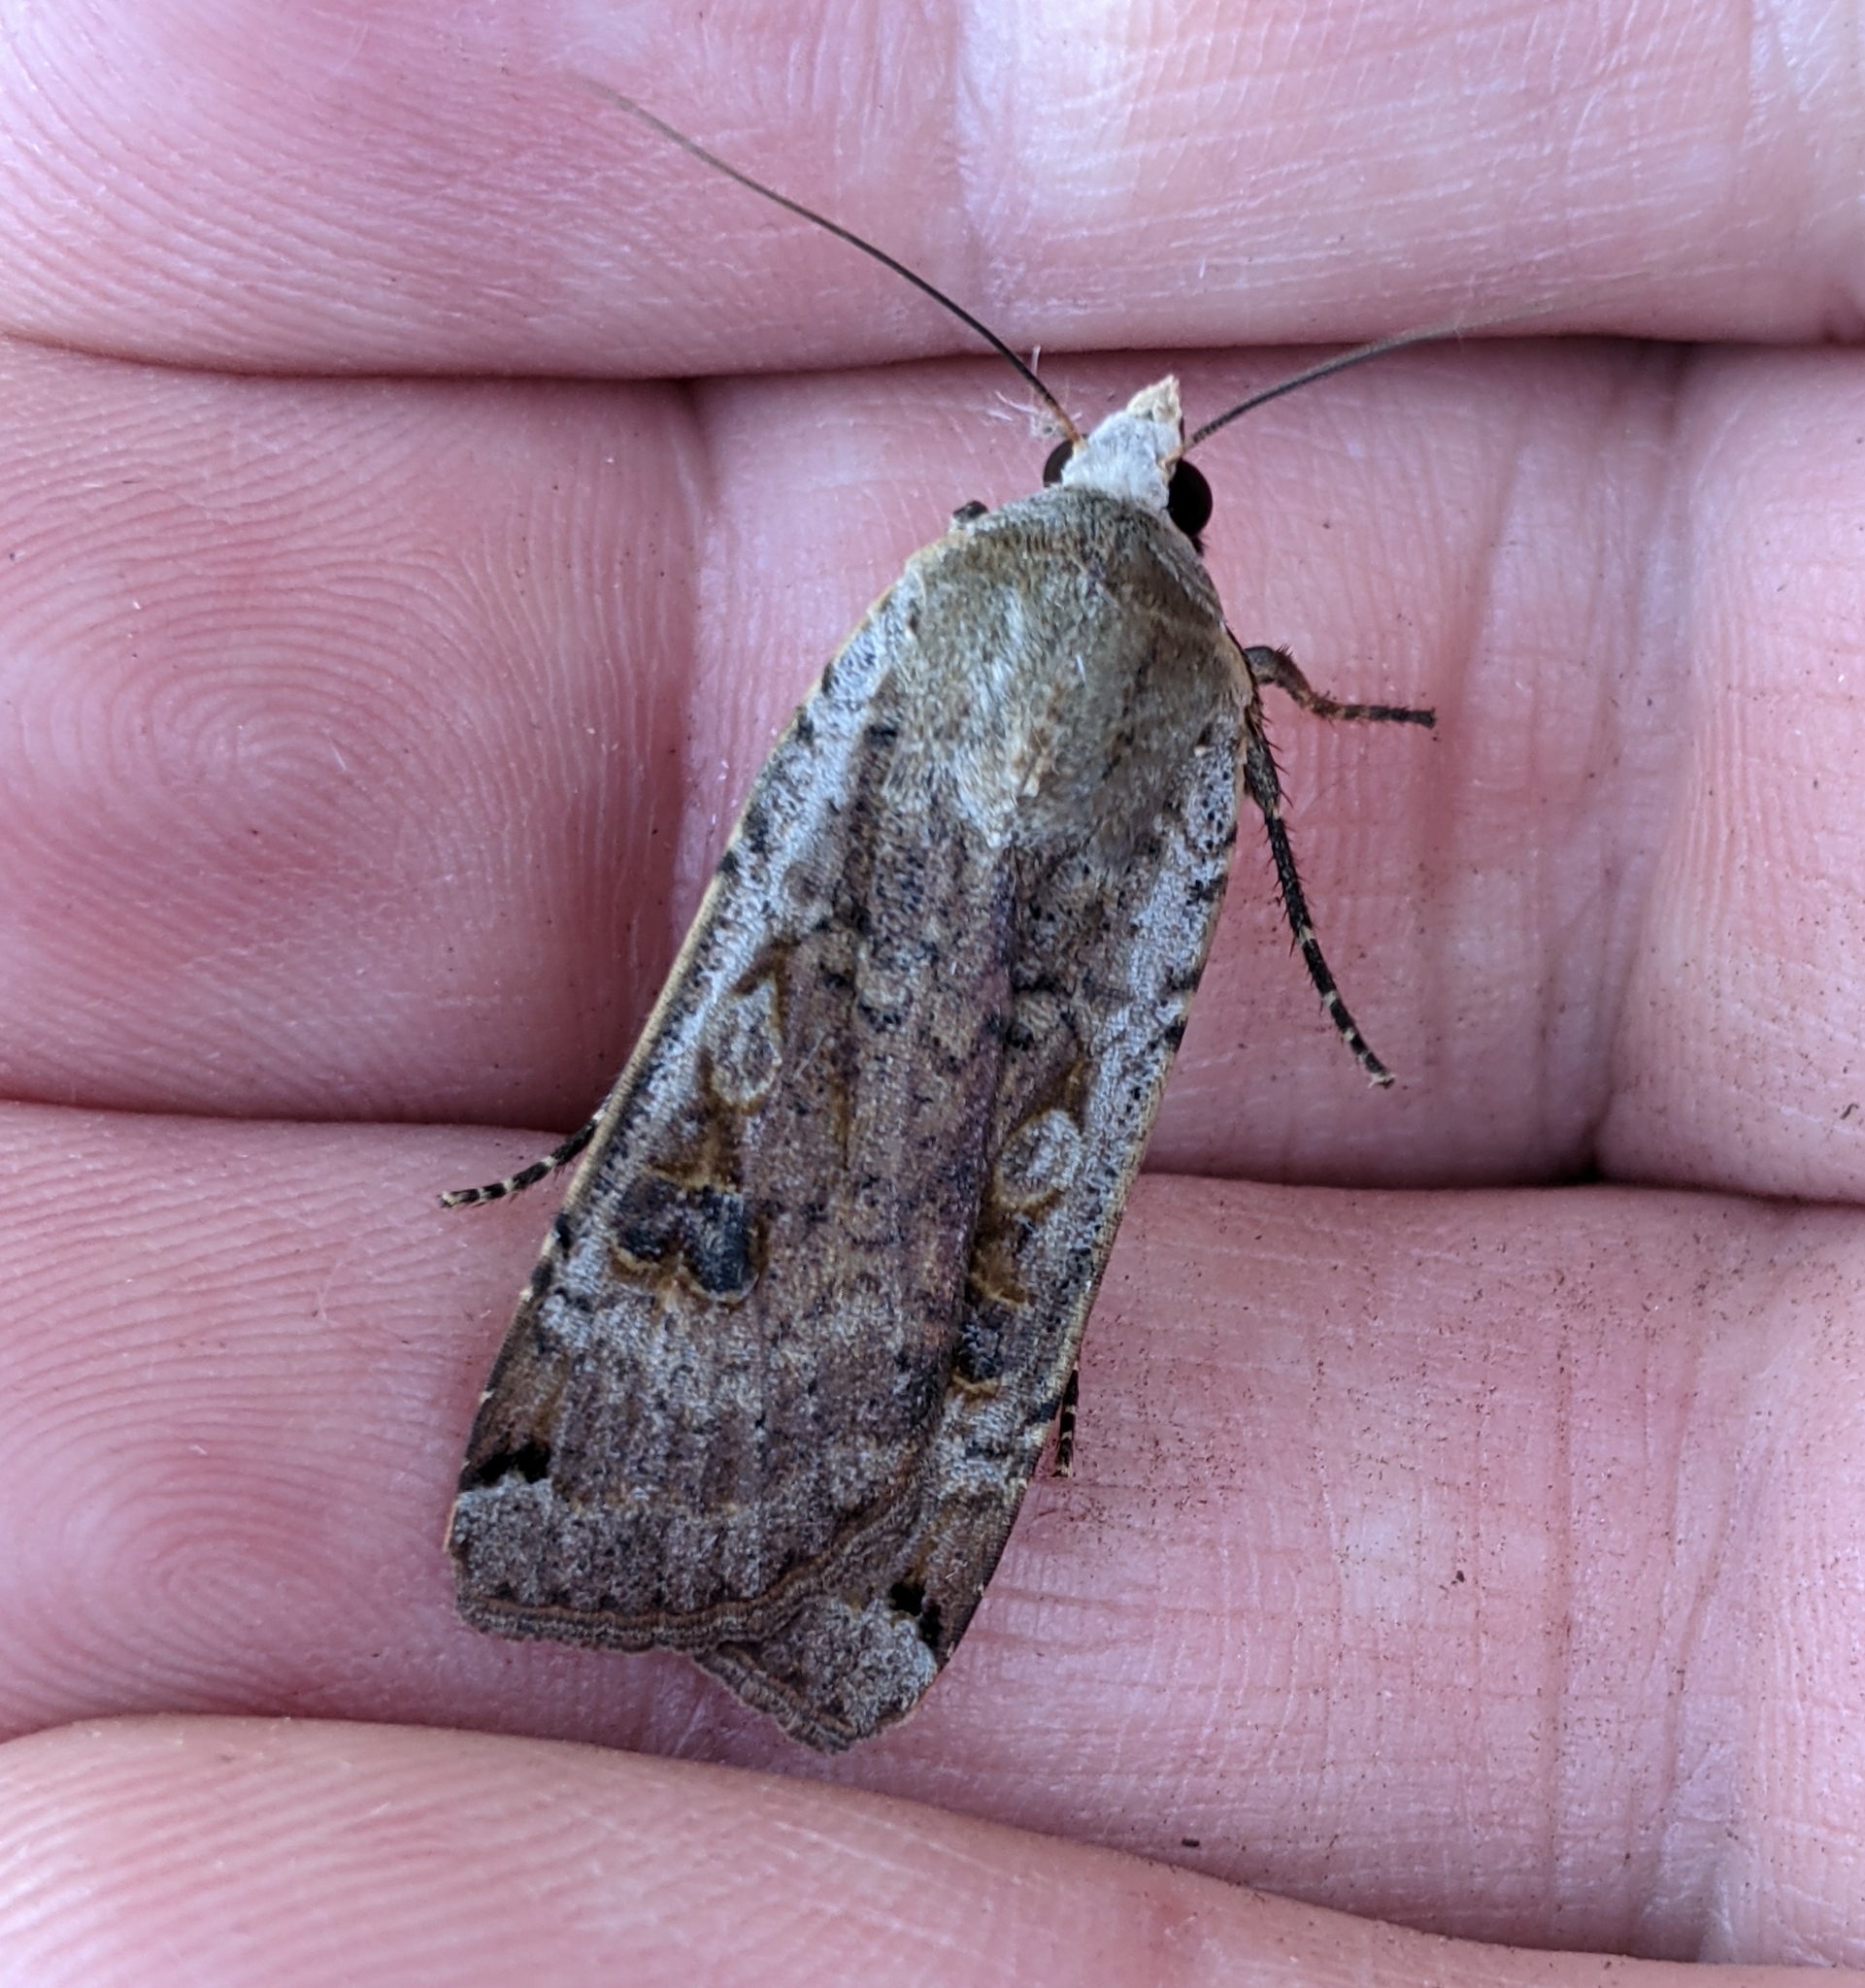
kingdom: Animalia
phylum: Arthropoda
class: Insecta
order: Lepidoptera
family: Noctuidae
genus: Noctua
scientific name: Noctua pronuba
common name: Large yellow underwing
